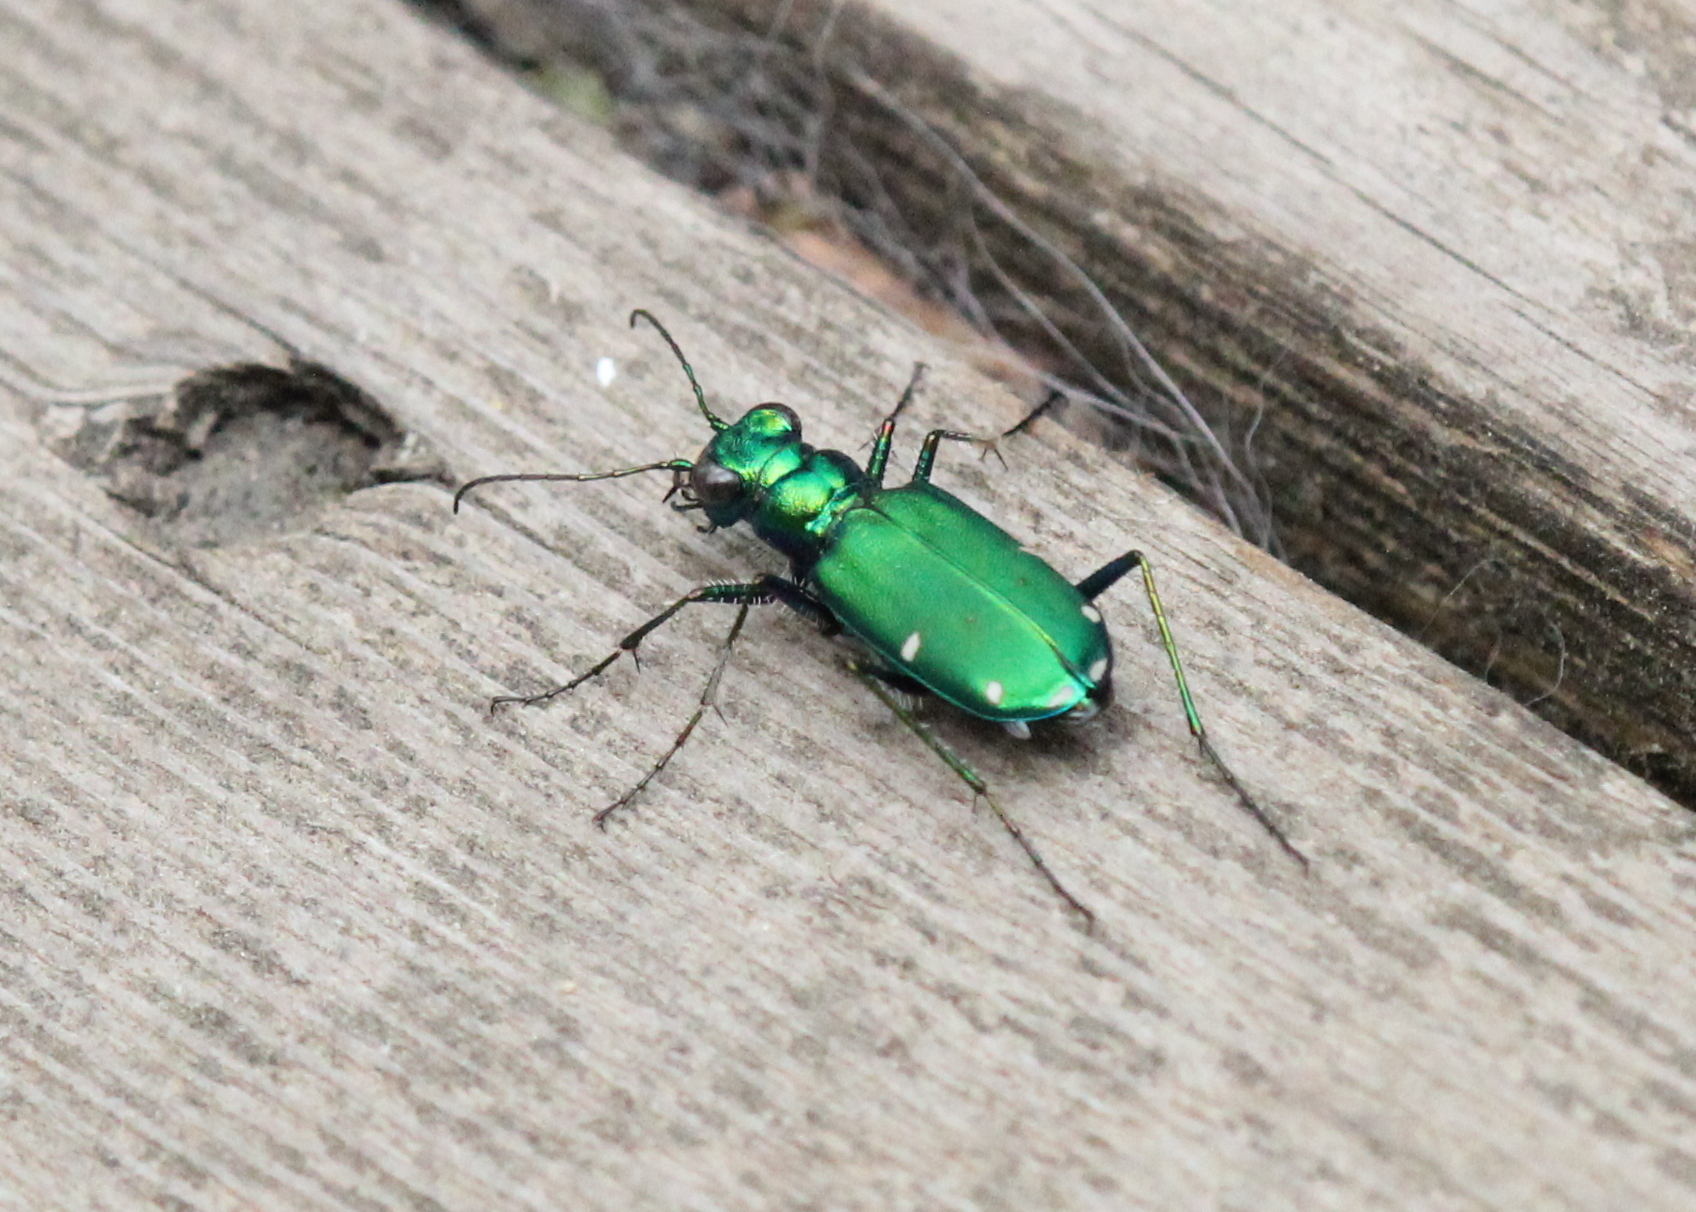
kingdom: Animalia
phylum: Arthropoda
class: Insecta
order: Coleoptera
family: Carabidae
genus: Cicindela
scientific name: Cicindela sexguttata
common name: Six-spotted tiger beetle
